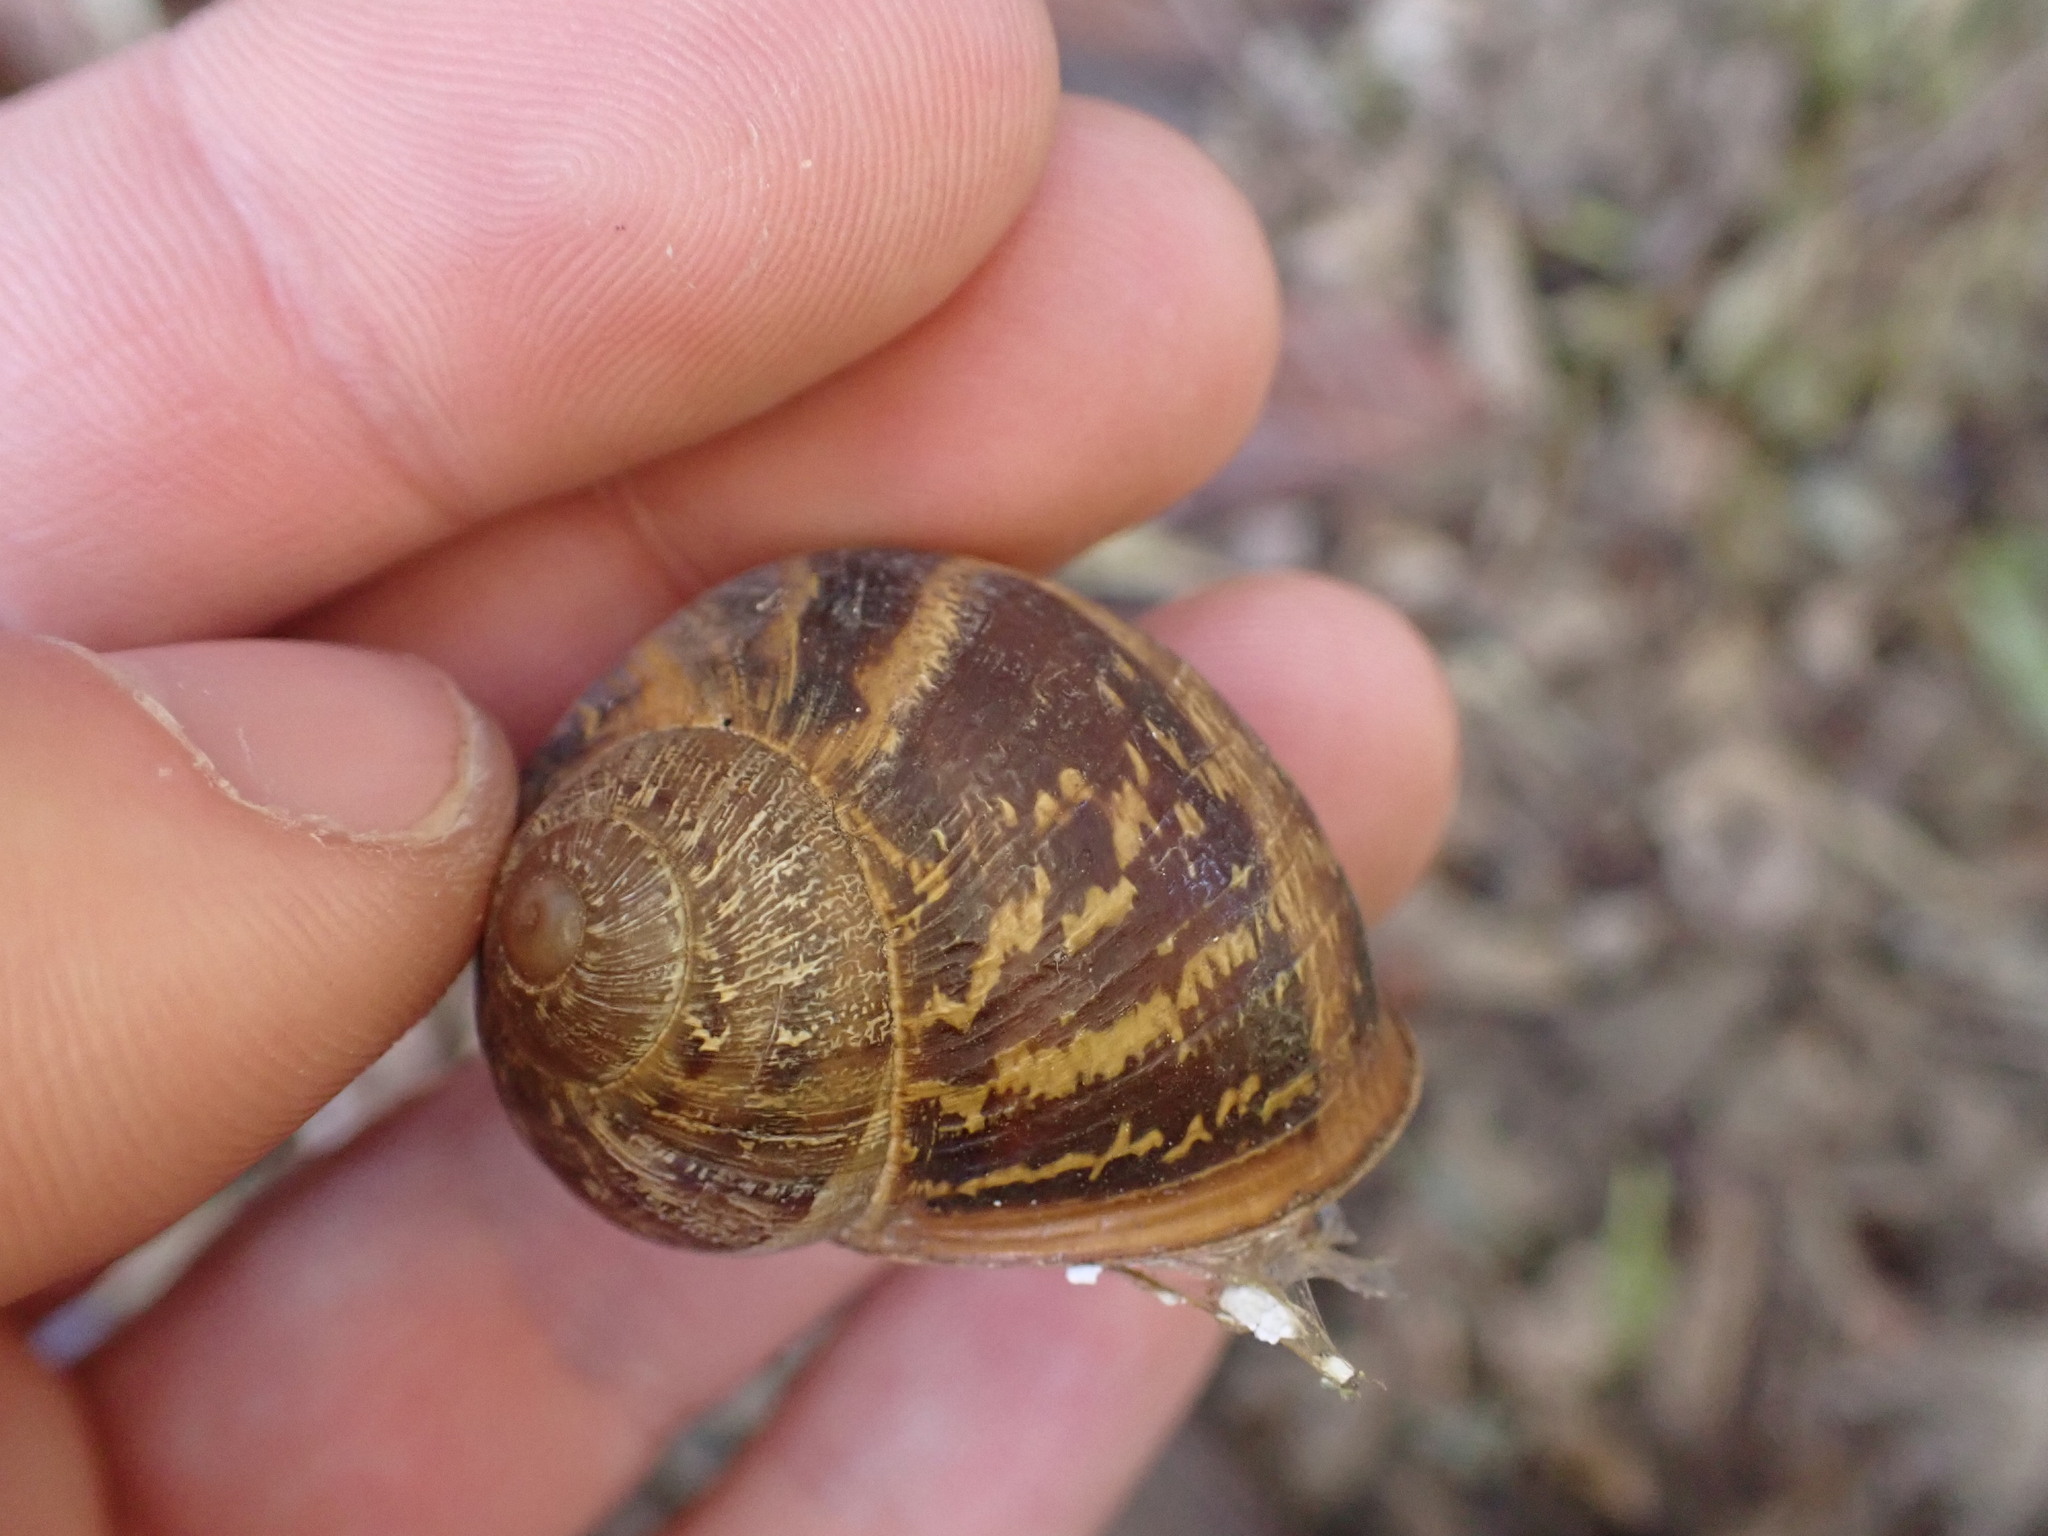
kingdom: Animalia
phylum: Mollusca
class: Gastropoda
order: Stylommatophora
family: Helicidae
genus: Cornu
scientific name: Cornu aspersum
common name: Brown garden snail
